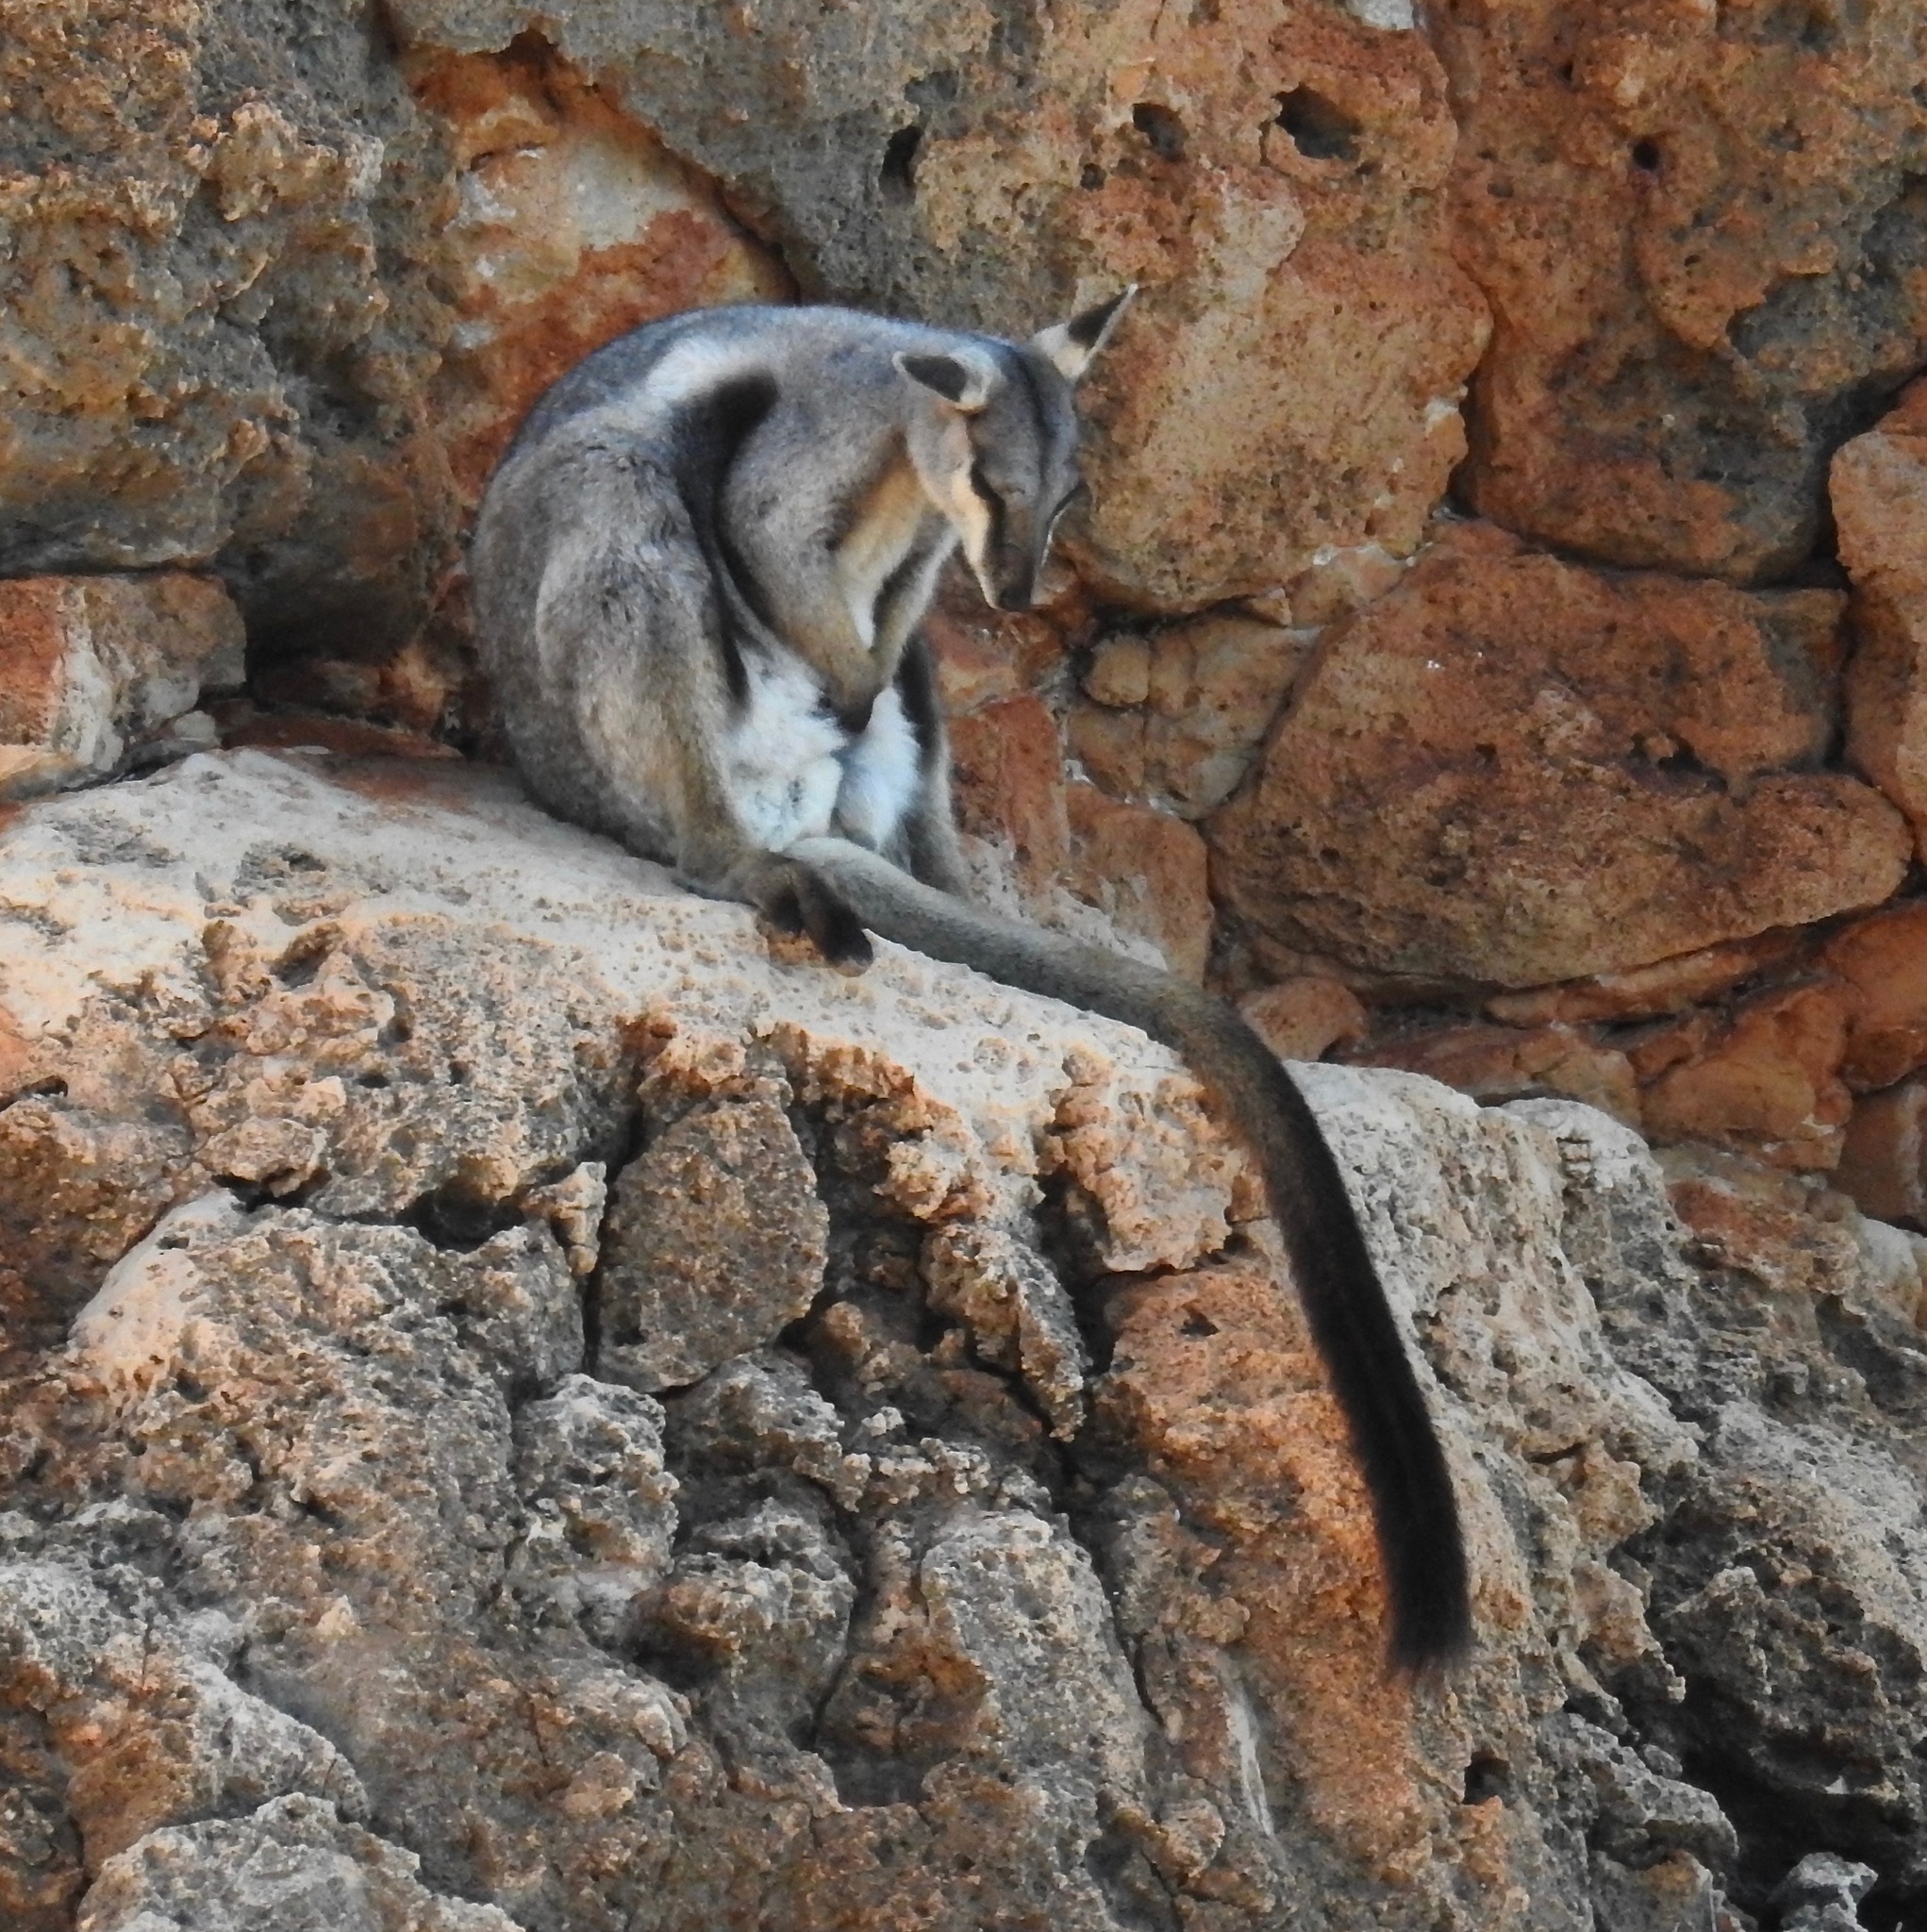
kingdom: Animalia
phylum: Chordata
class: Mammalia
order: Diprotodontia
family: Macropodidae
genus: Petrogale
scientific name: Petrogale lateralis
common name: Black-flanked rock-wallaby
